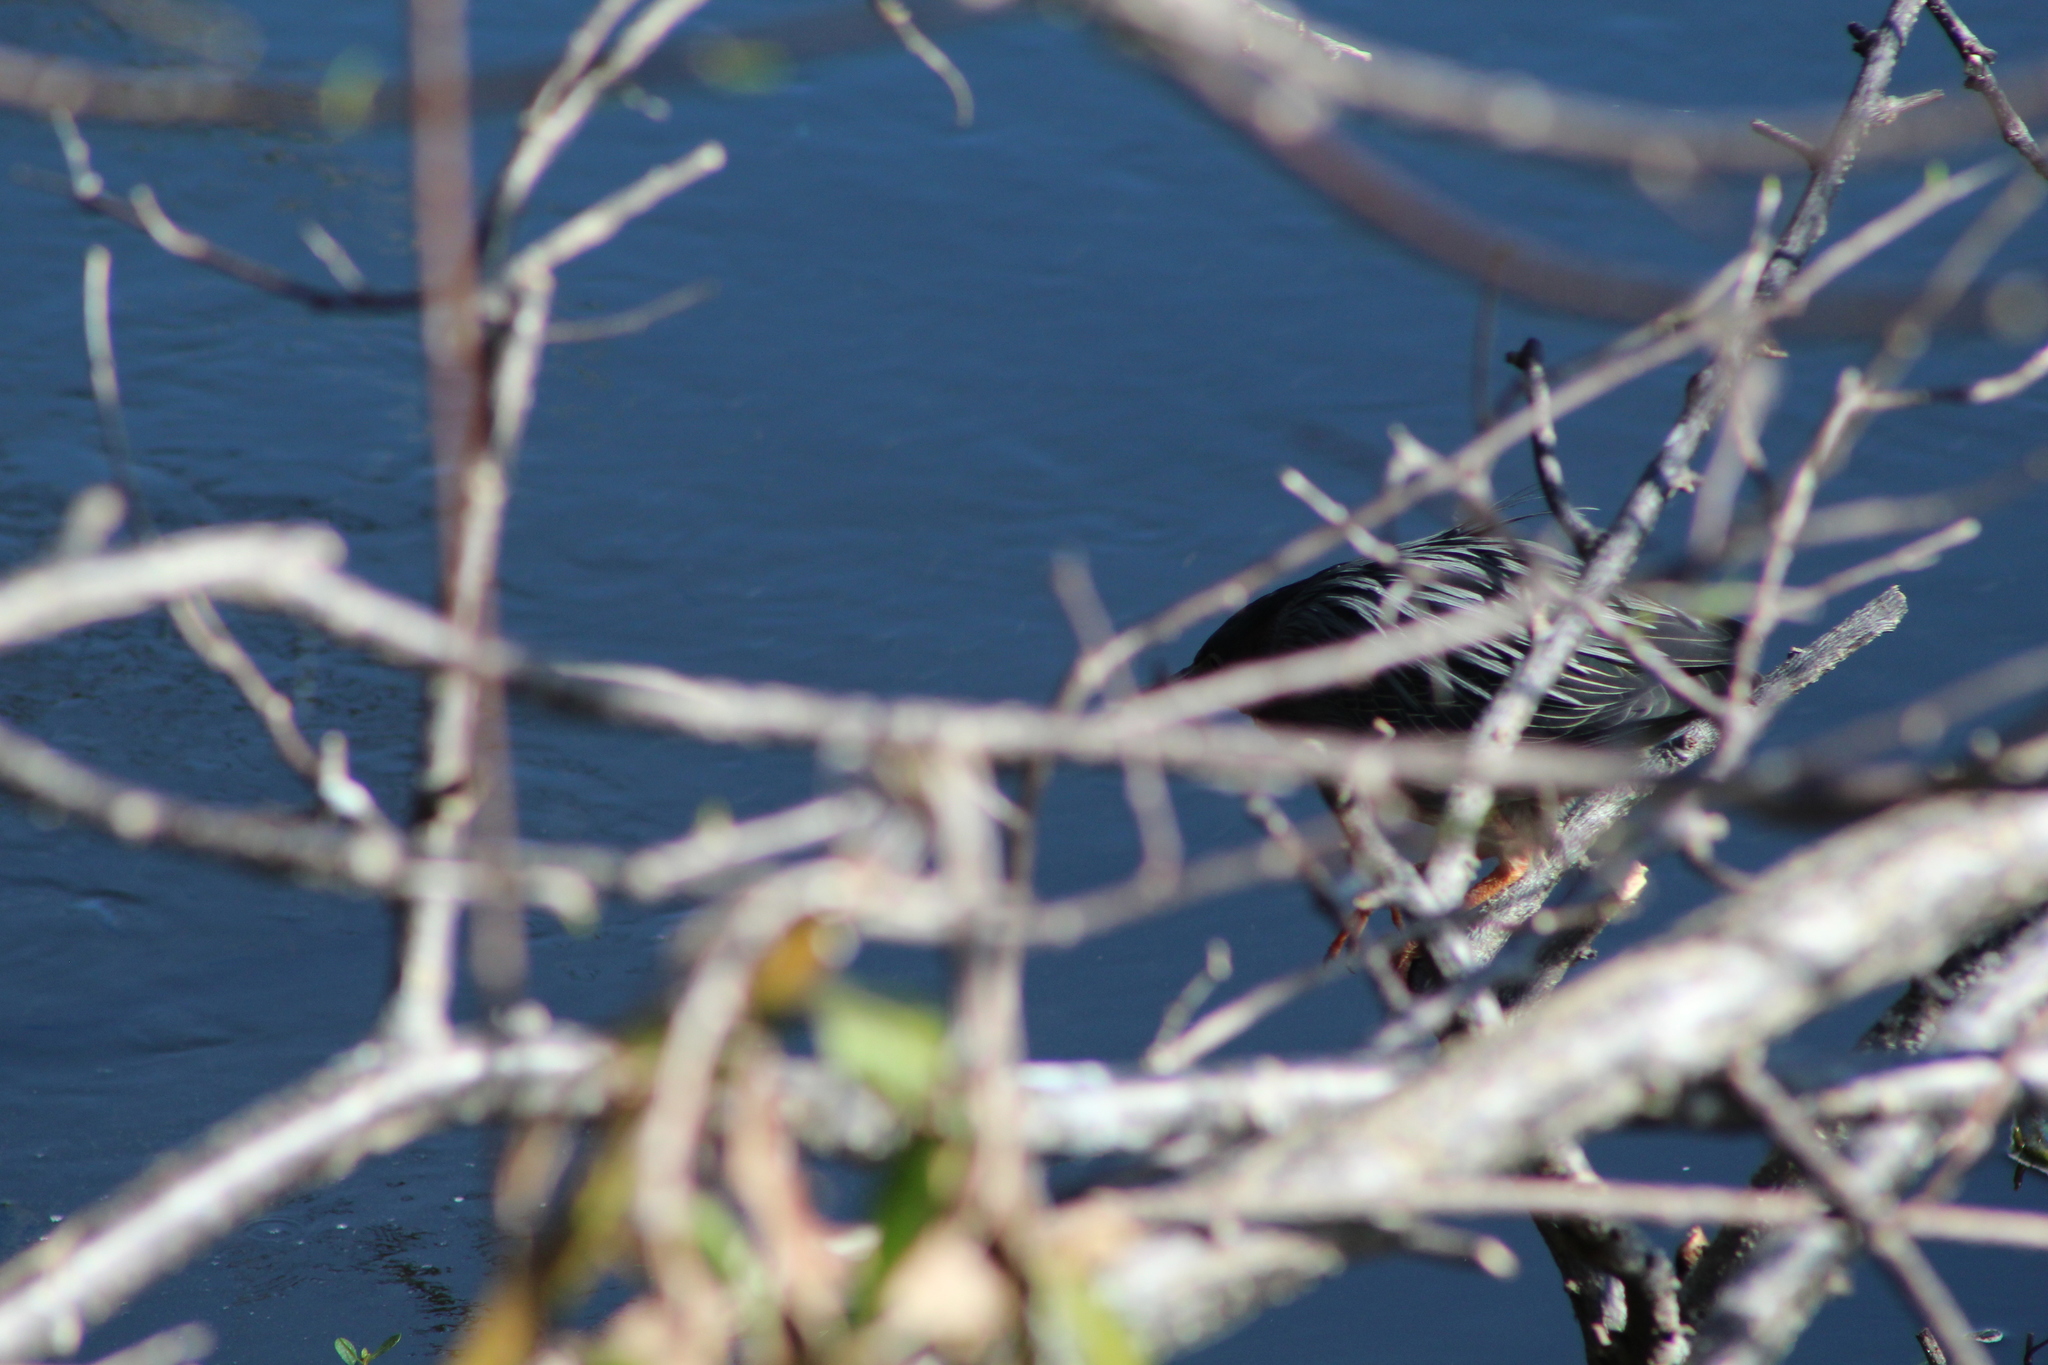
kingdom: Animalia
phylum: Chordata
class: Aves
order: Pelecaniformes
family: Ardeidae
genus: Butorides
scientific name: Butorides virescens
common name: Green heron
